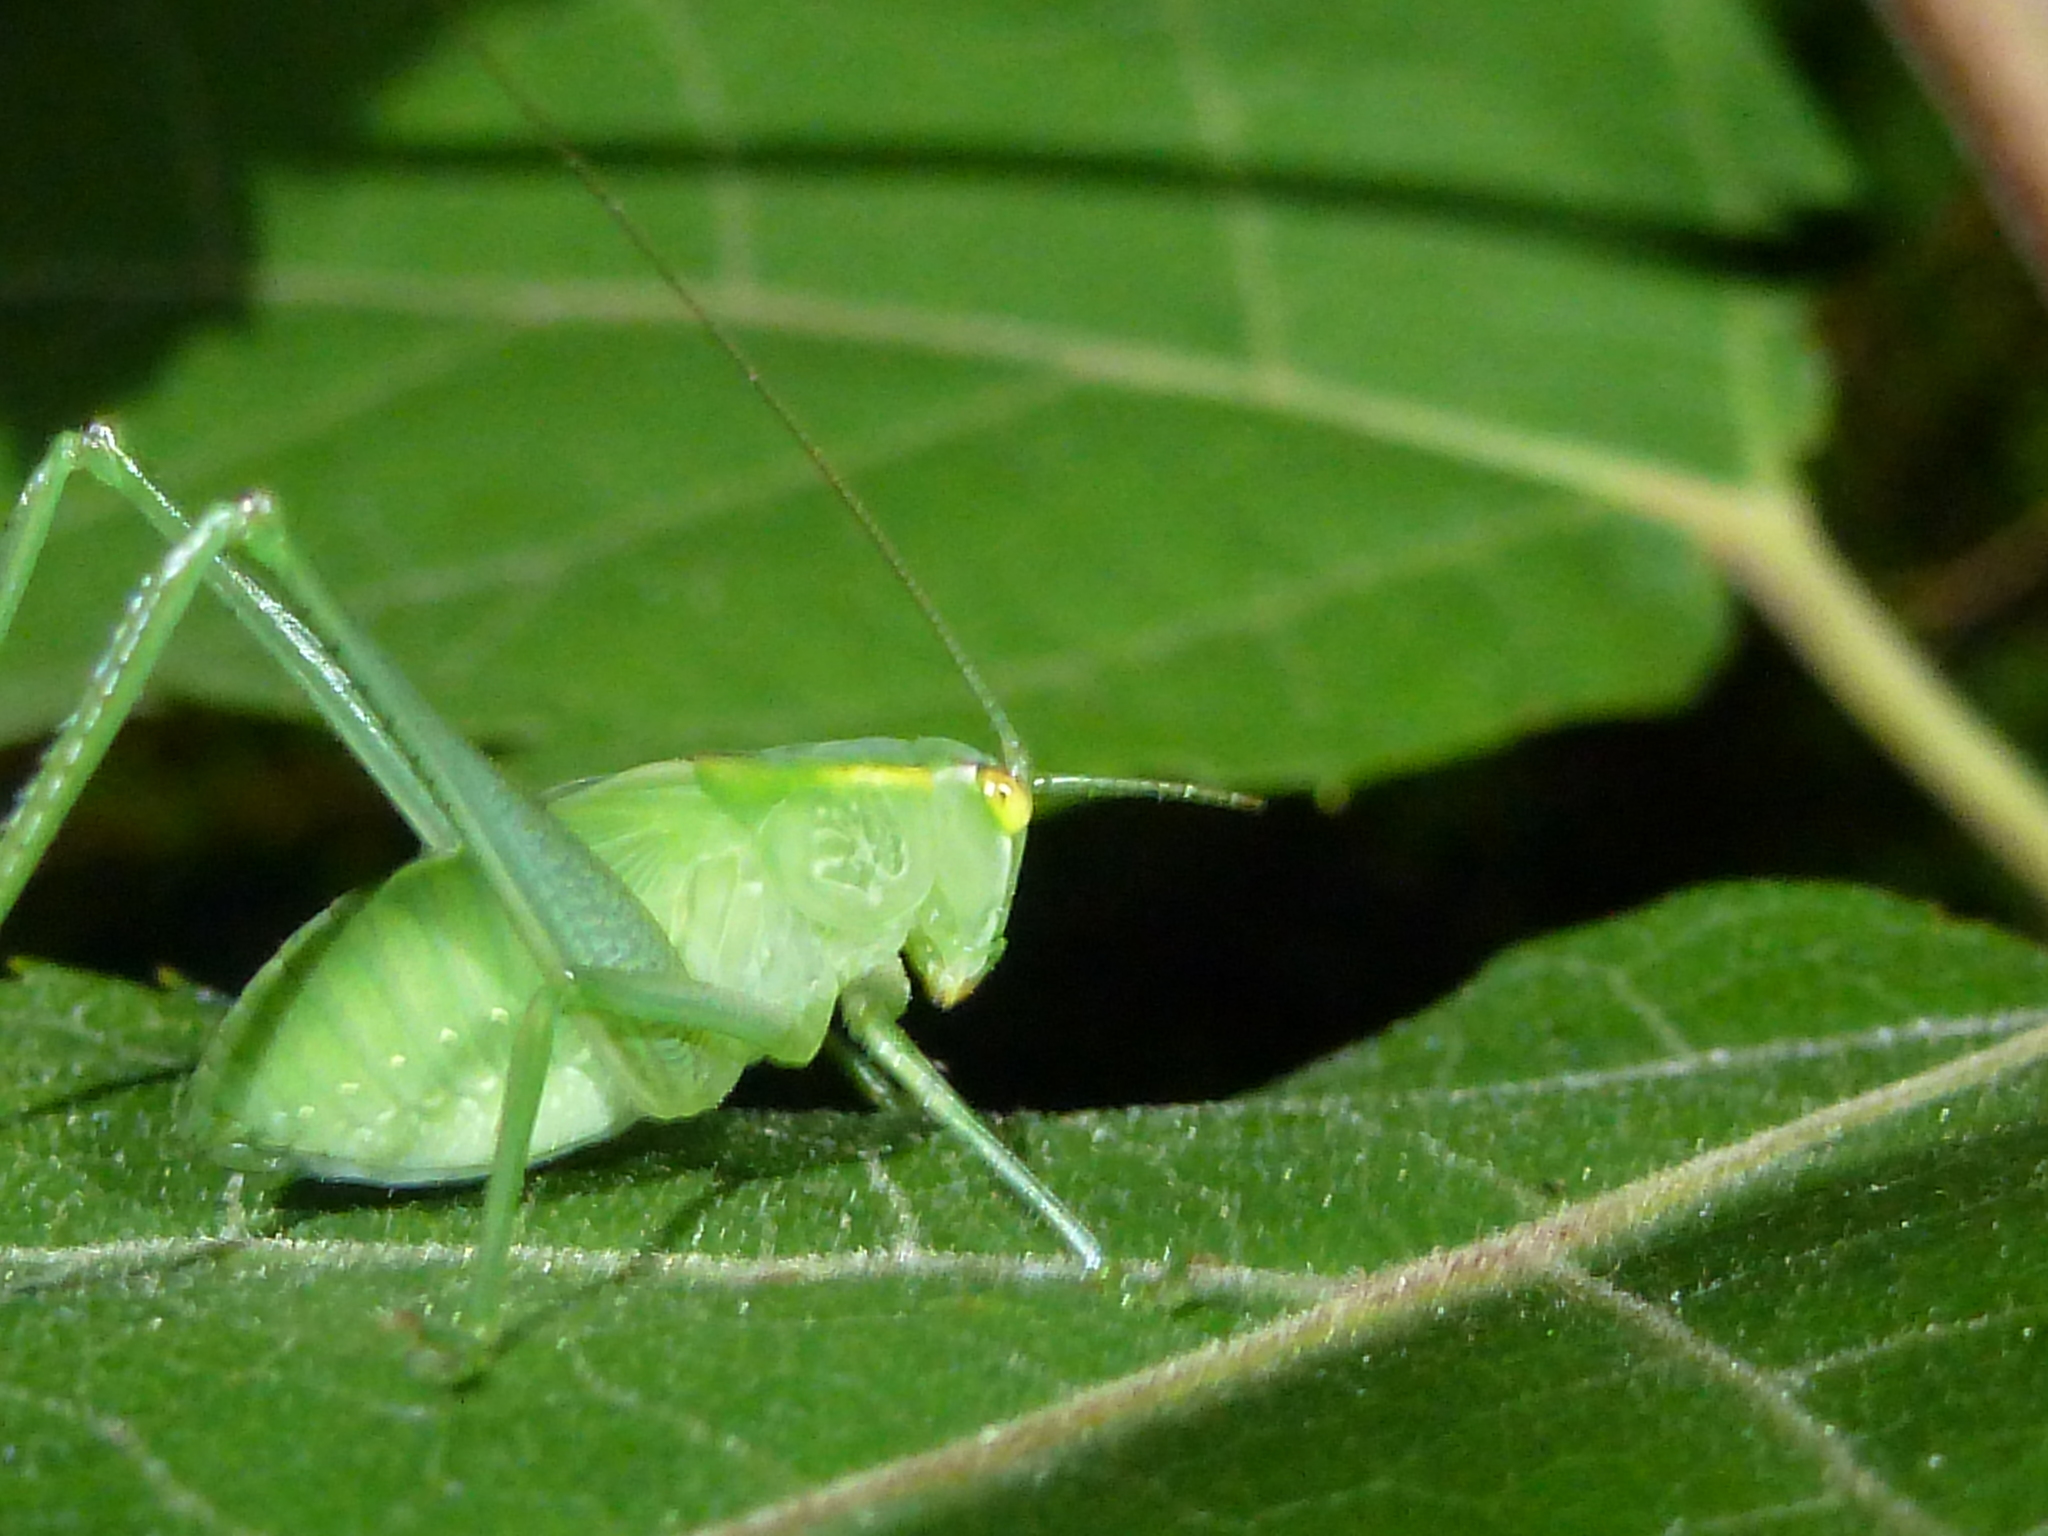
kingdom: Animalia
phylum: Arthropoda
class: Insecta
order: Orthoptera
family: Tettigoniidae
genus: Caedicia
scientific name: Caedicia simplex
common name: Common garden katydid
